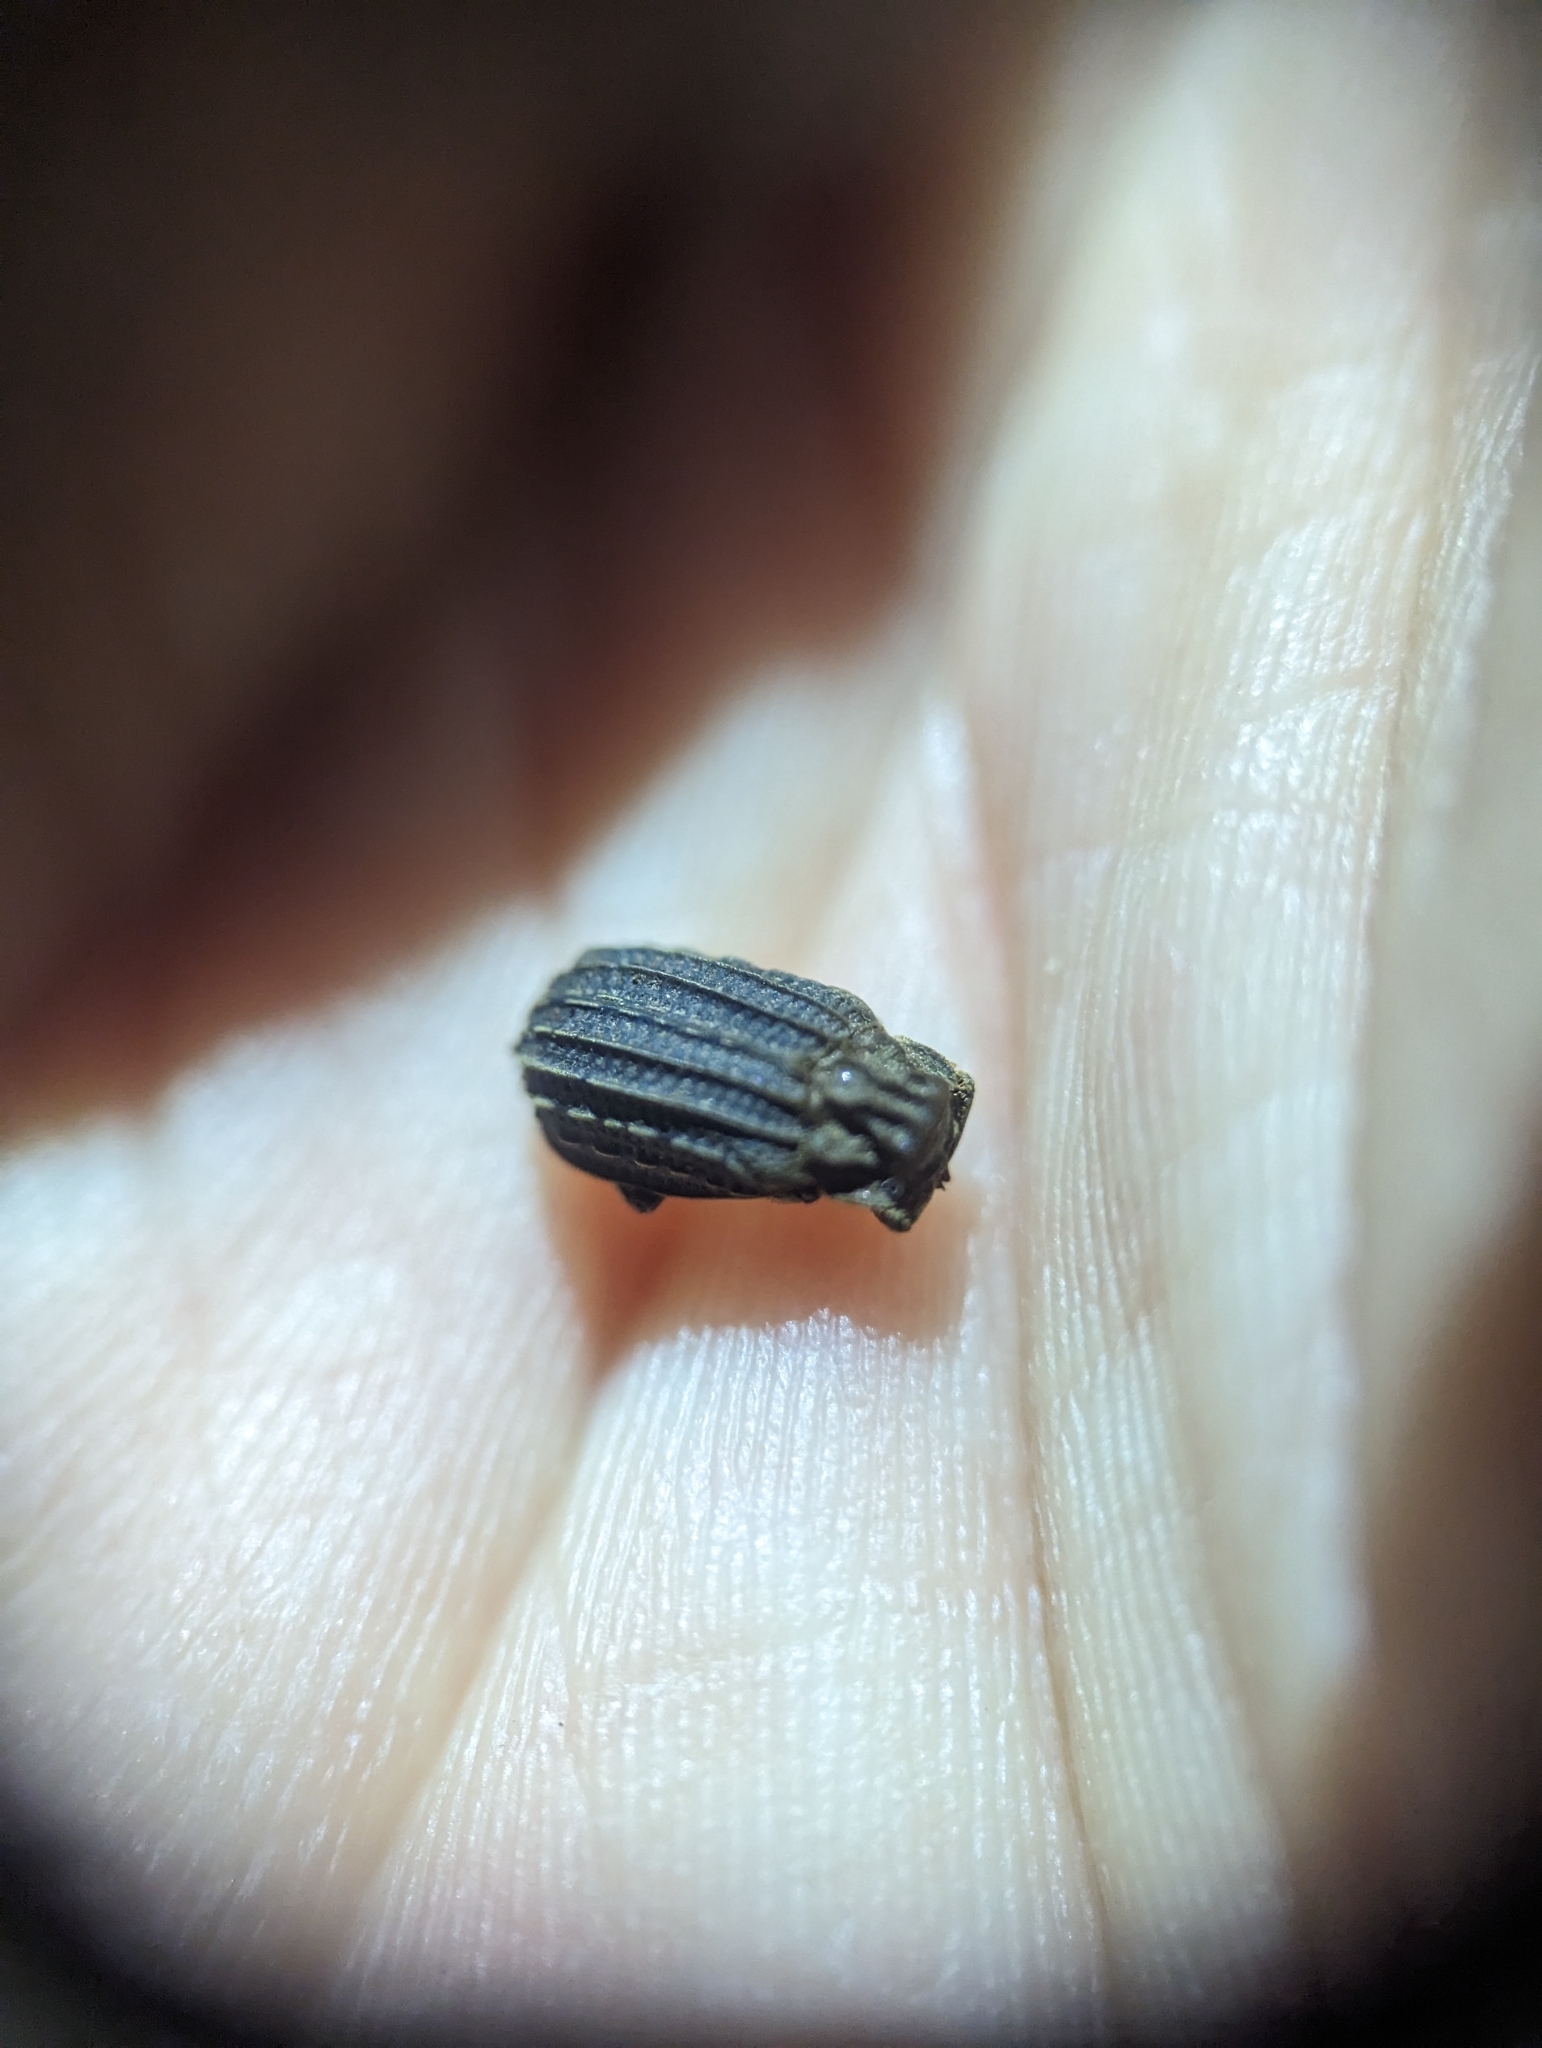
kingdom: Animalia
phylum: Arthropoda
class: Insecta
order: Coleoptera
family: Trogidae
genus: Phoberus
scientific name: Phoberus rhyparoides
